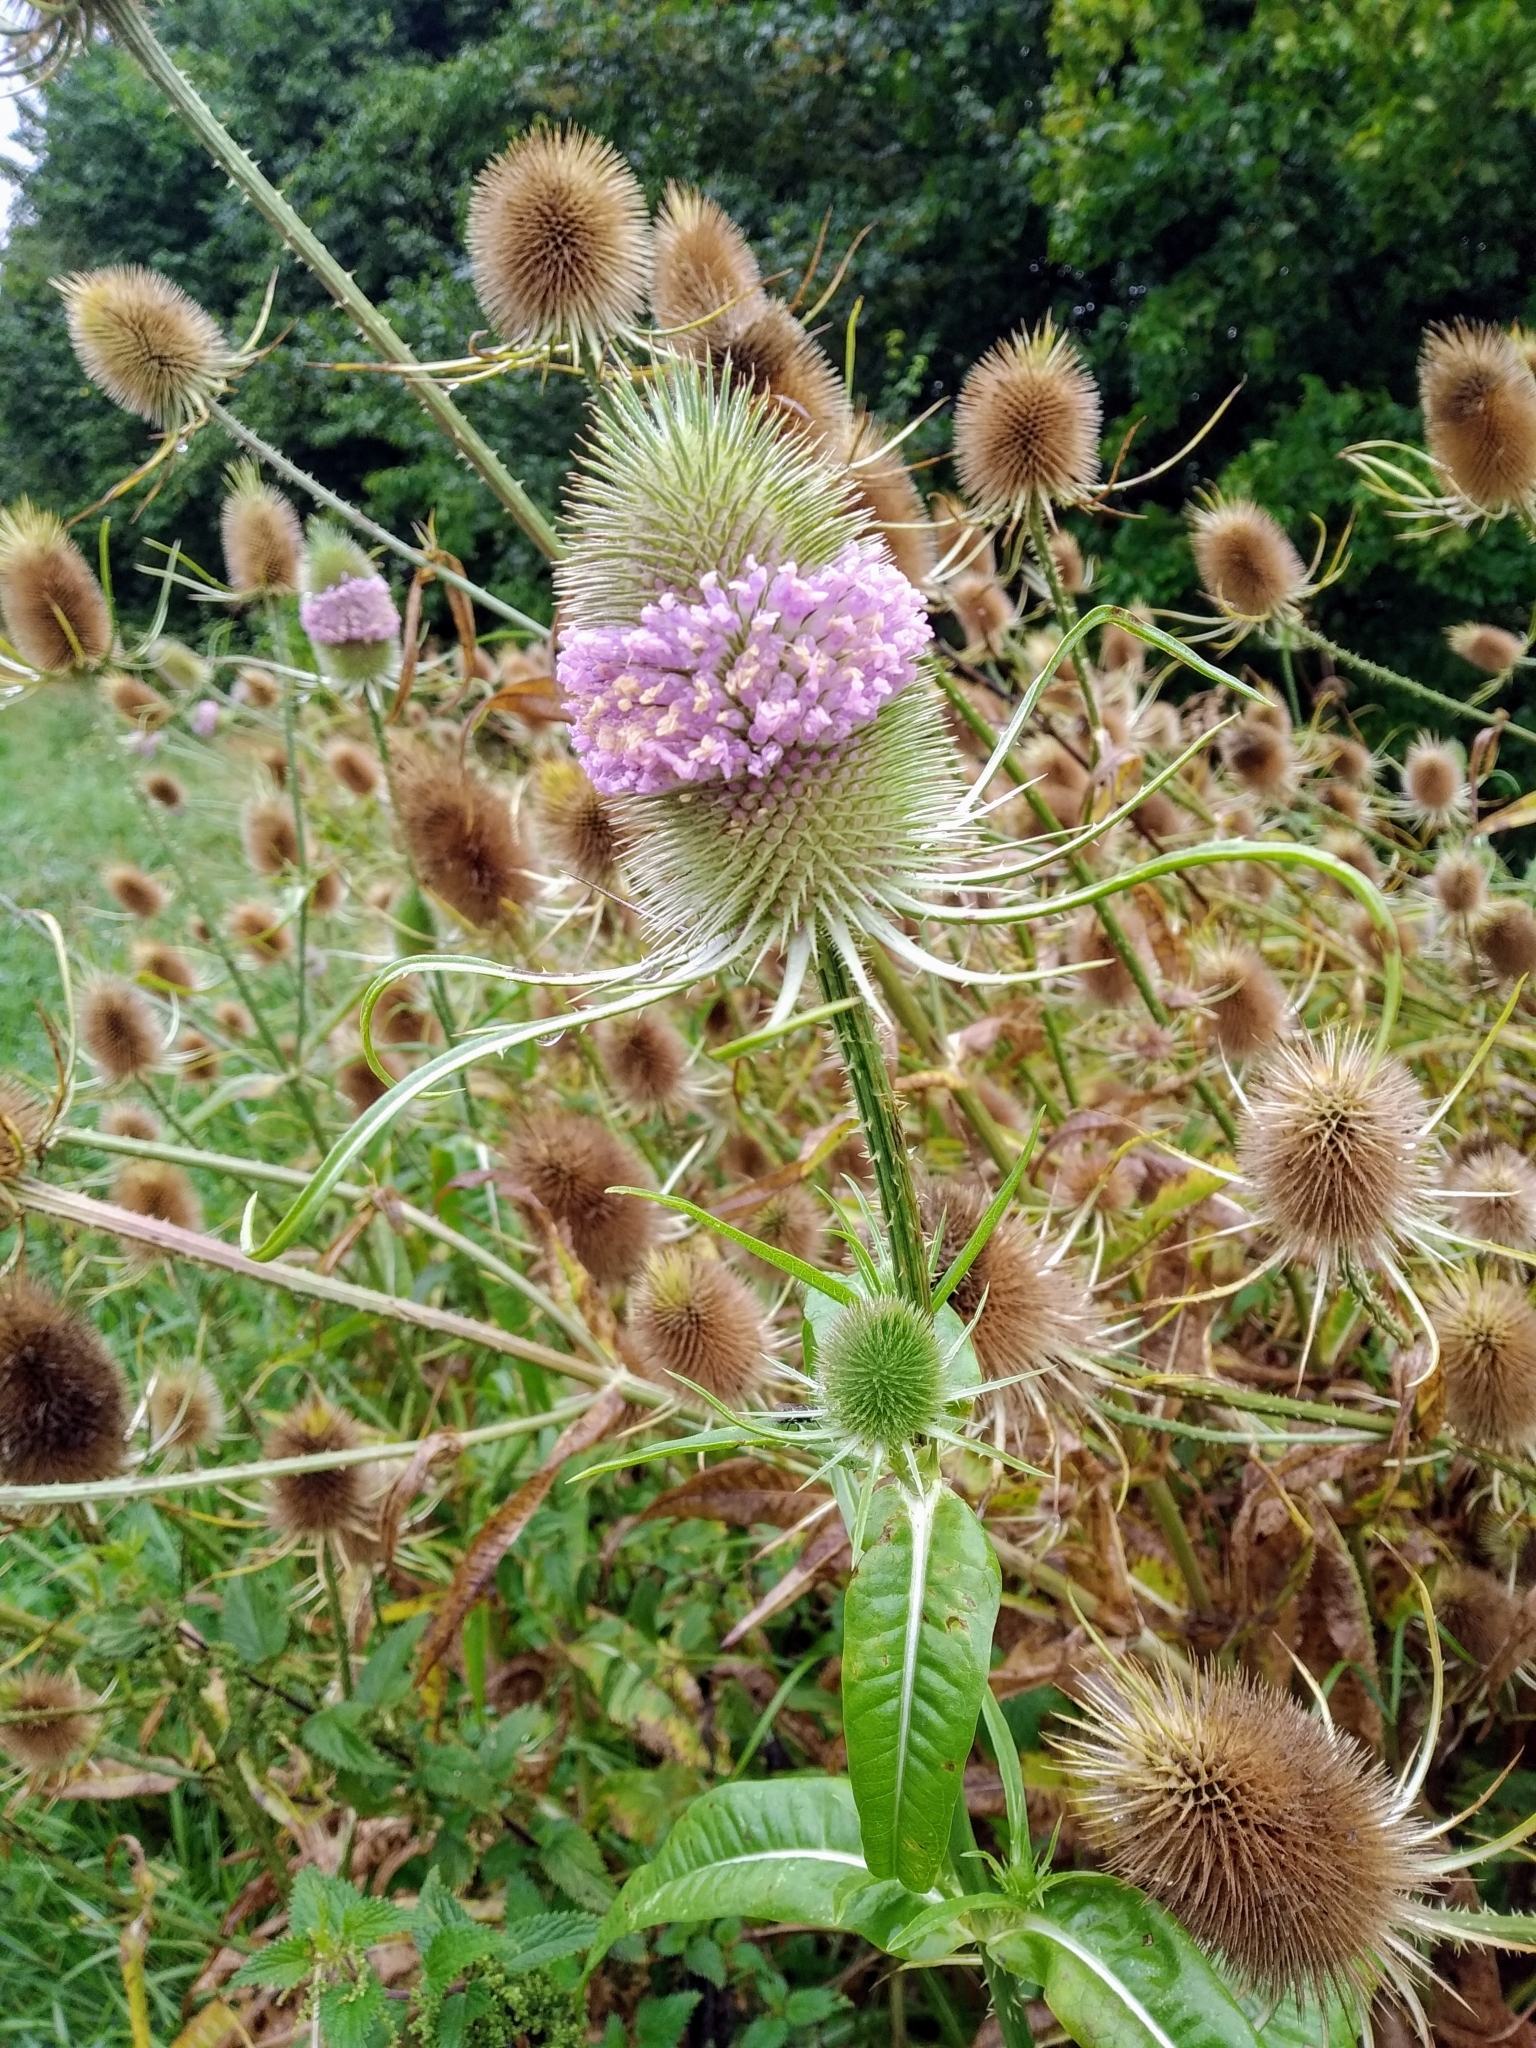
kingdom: Plantae
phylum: Tracheophyta
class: Magnoliopsida
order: Dipsacales
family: Caprifoliaceae
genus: Dipsacus
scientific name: Dipsacus fullonum
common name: Teasel
